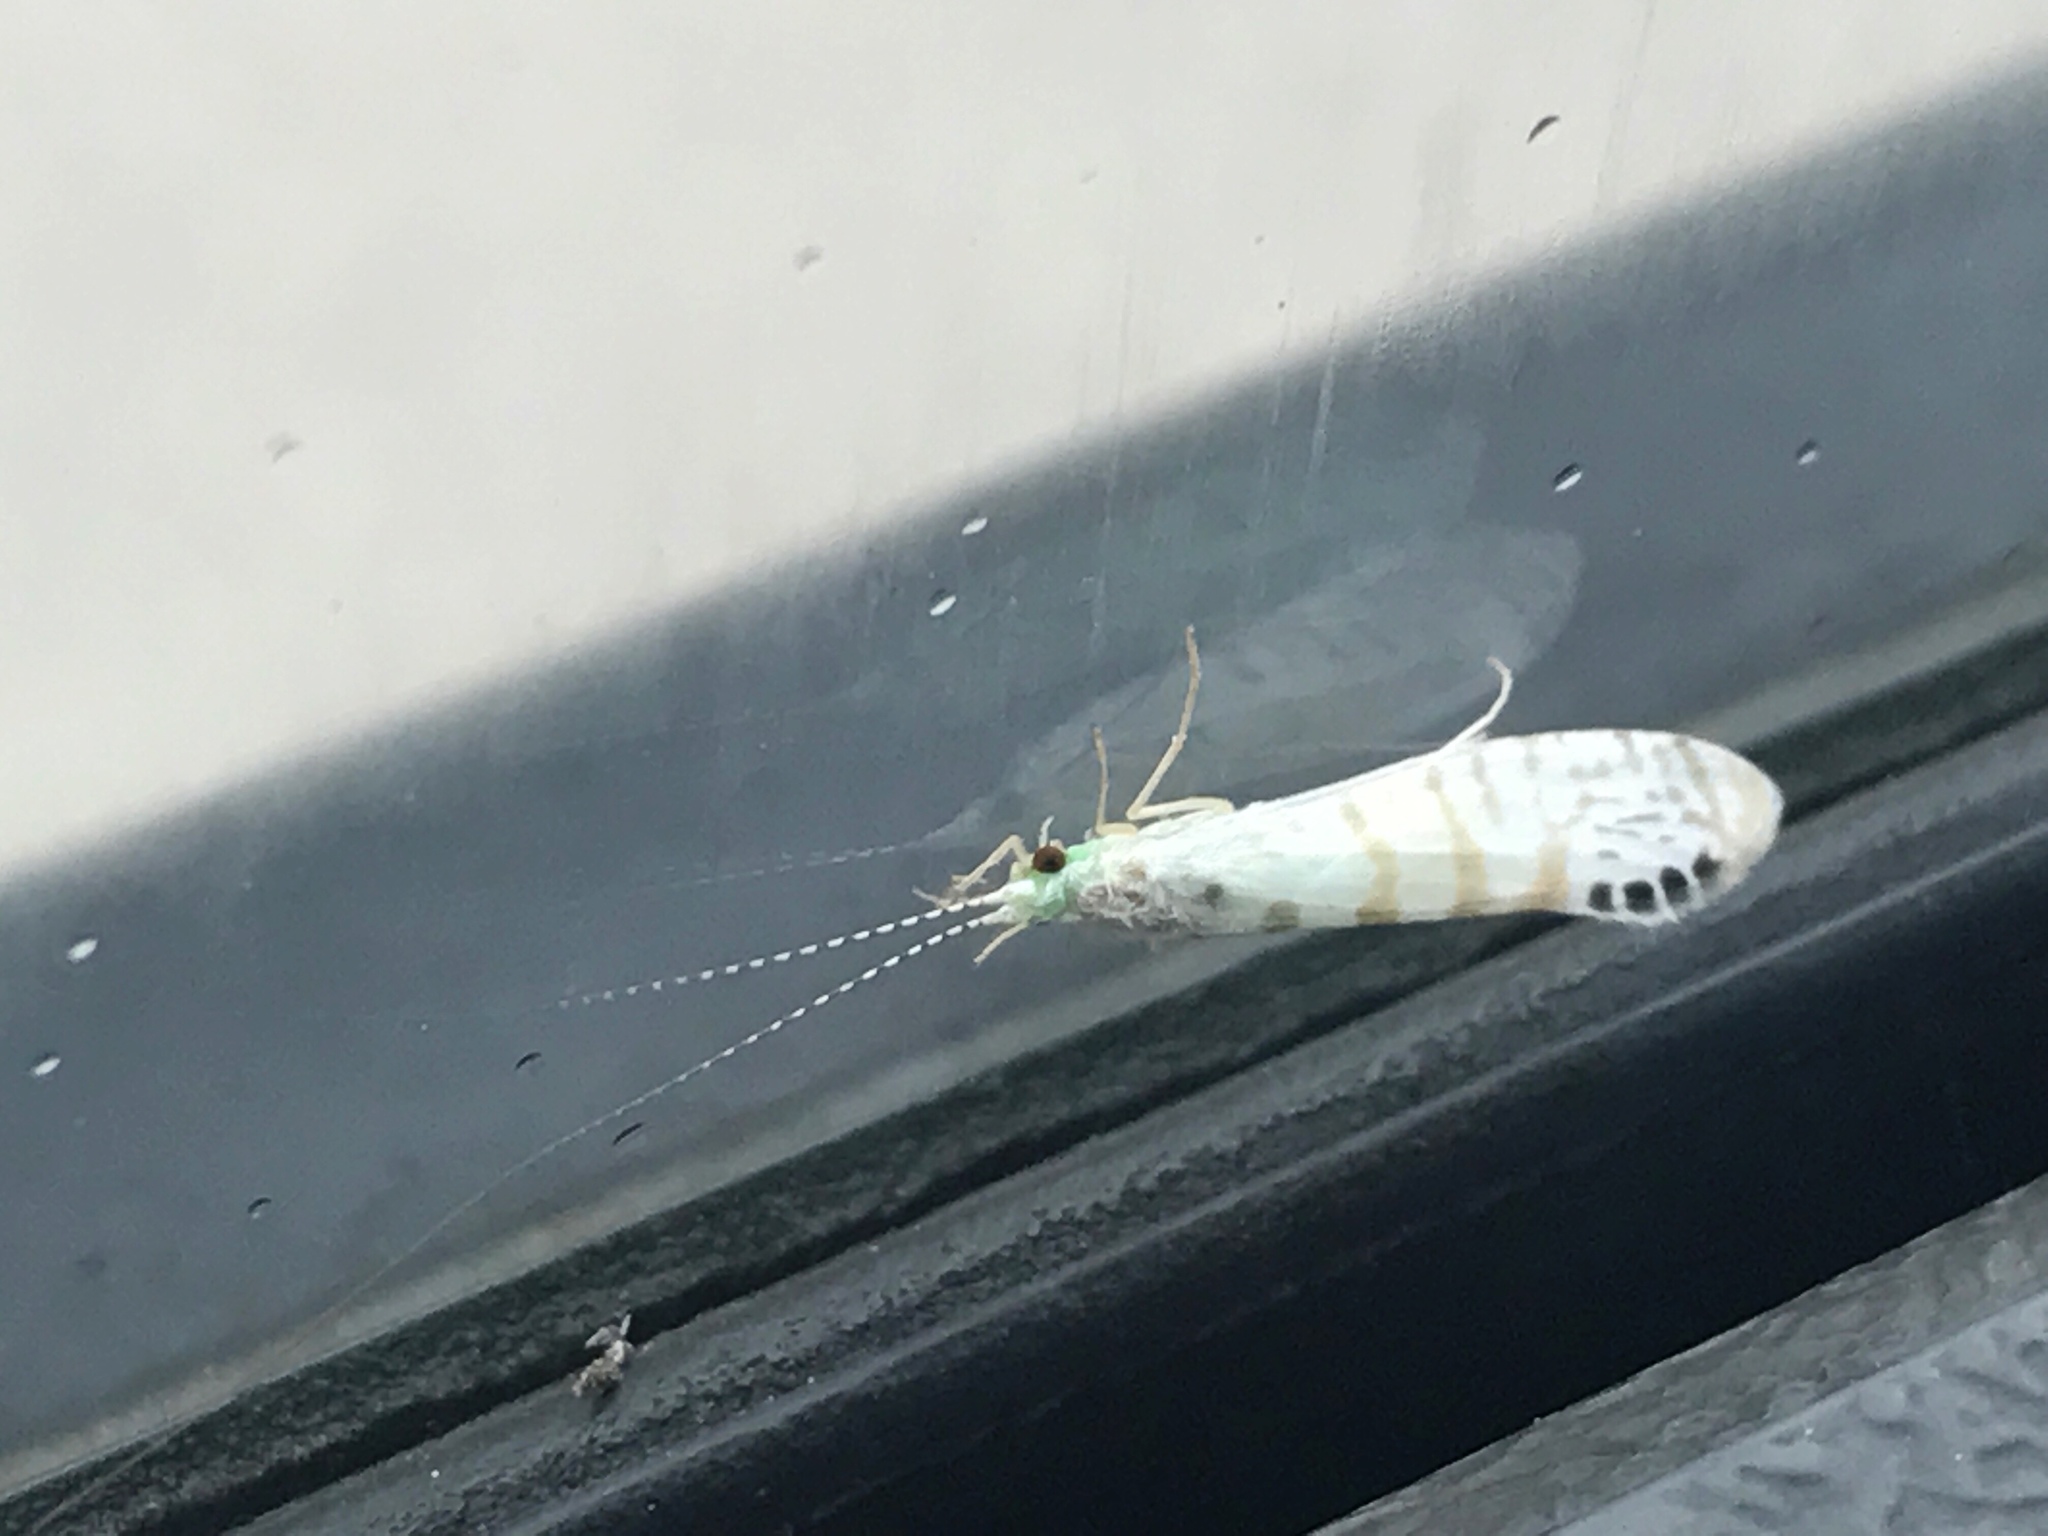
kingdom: Animalia
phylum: Arthropoda
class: Insecta
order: Trichoptera
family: Leptoceridae
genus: Nectopsyche
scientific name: Nectopsyche exquisita
